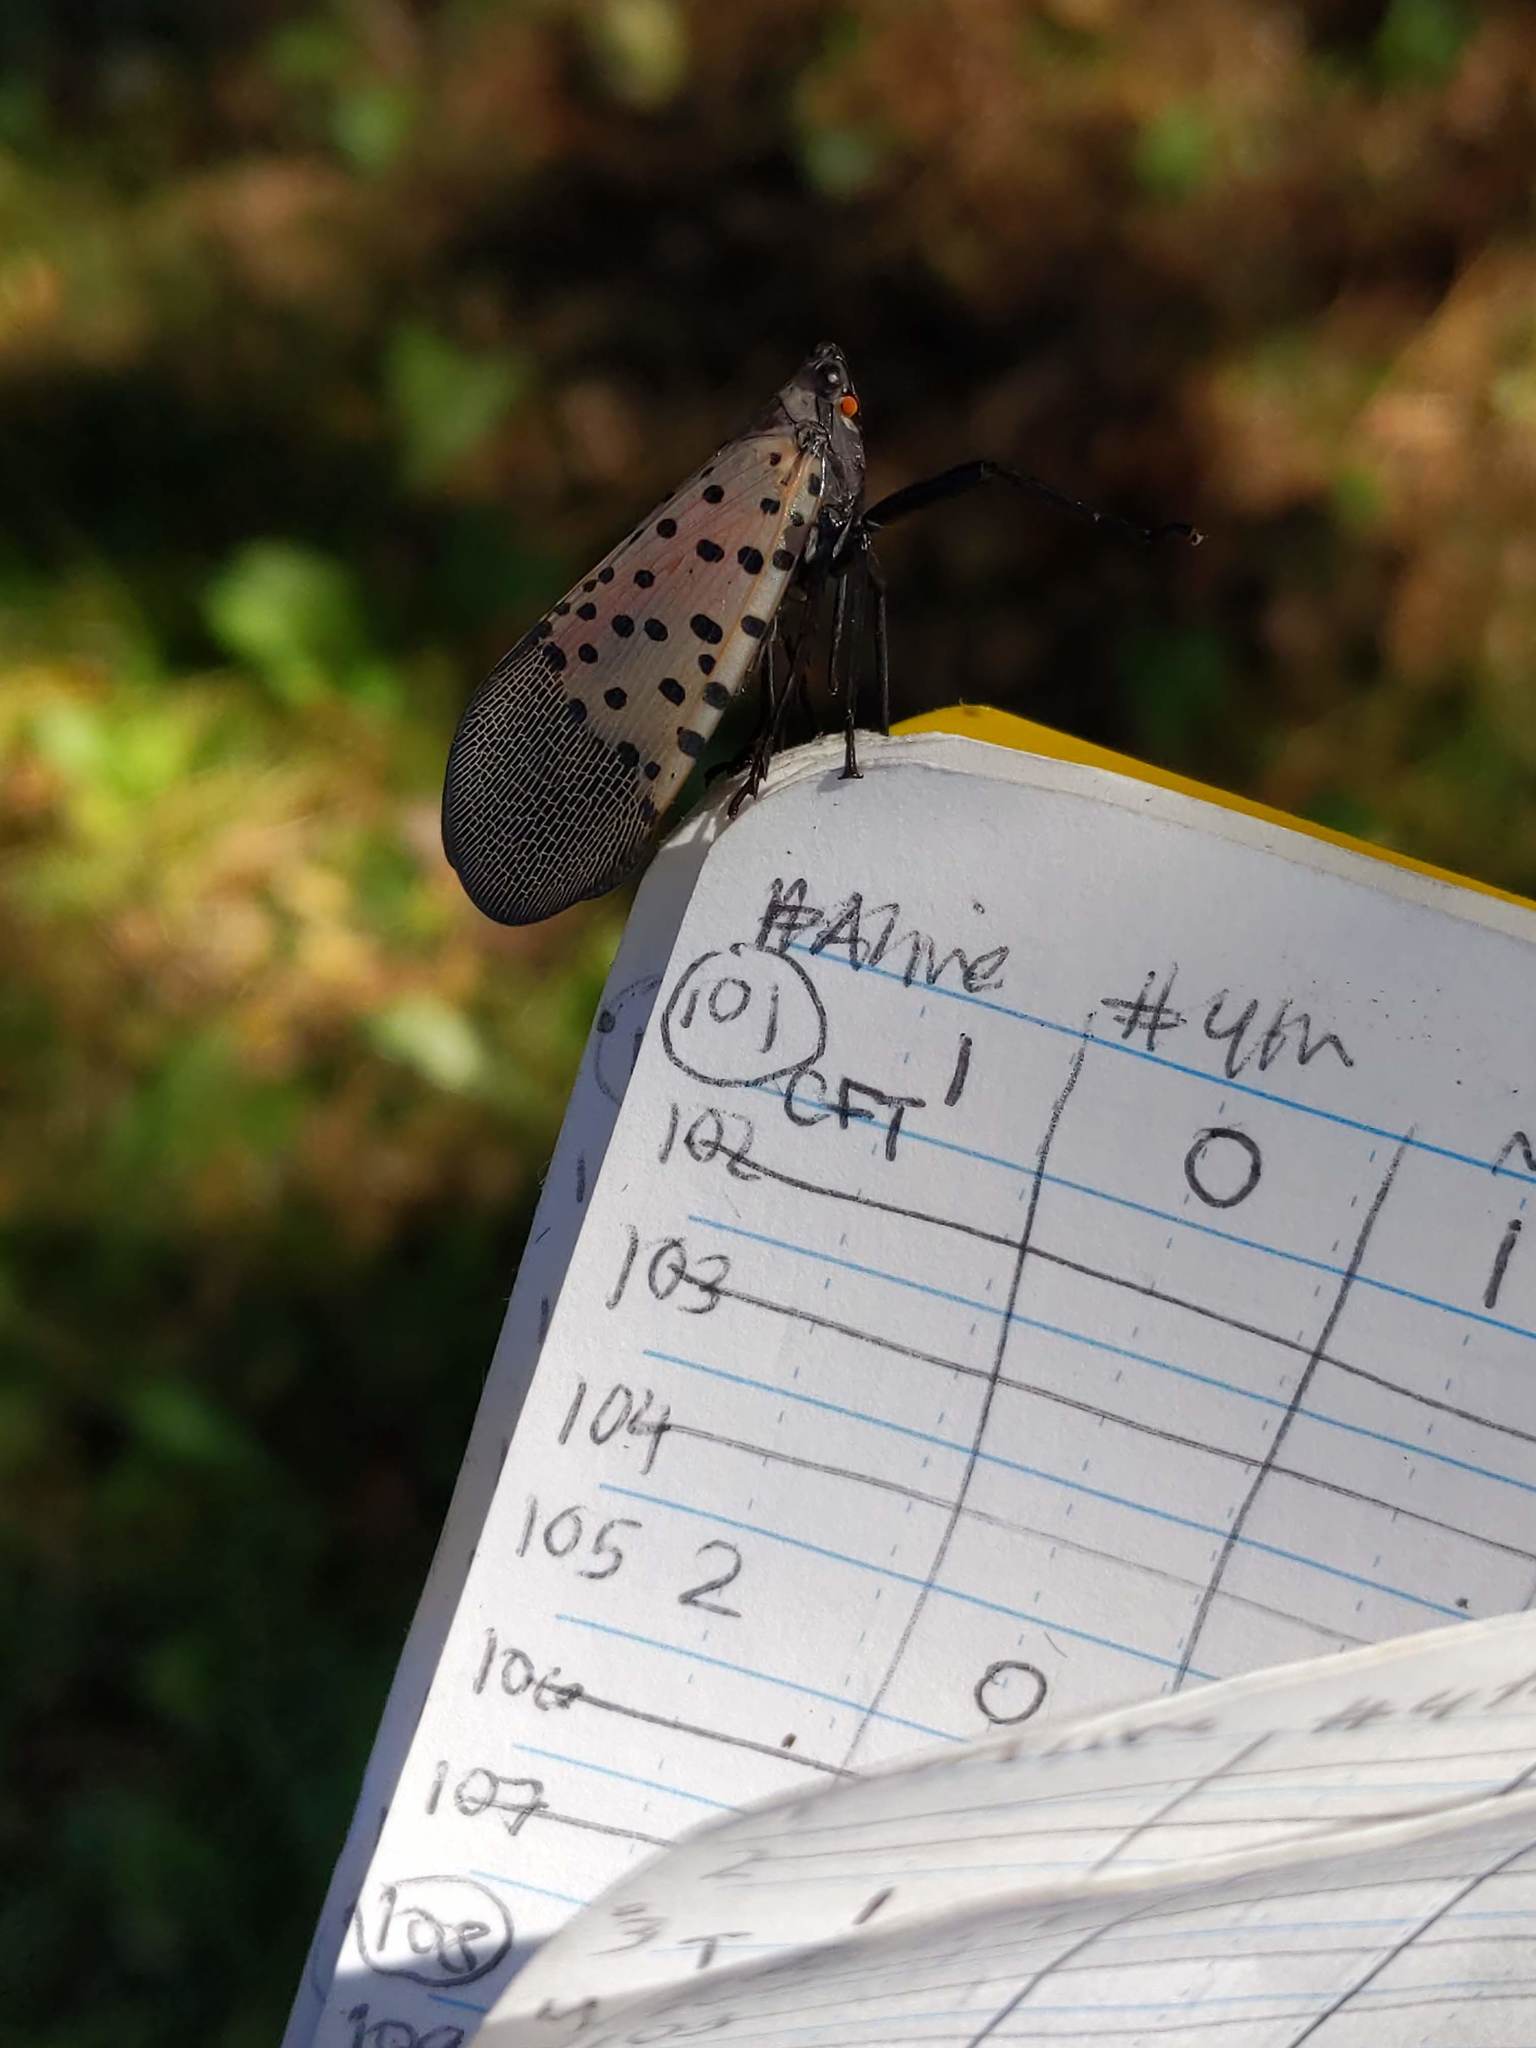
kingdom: Animalia
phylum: Arthropoda
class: Insecta
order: Hemiptera
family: Fulgoridae
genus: Lycorma
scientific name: Lycorma delicatula
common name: Spotted lanternfly
